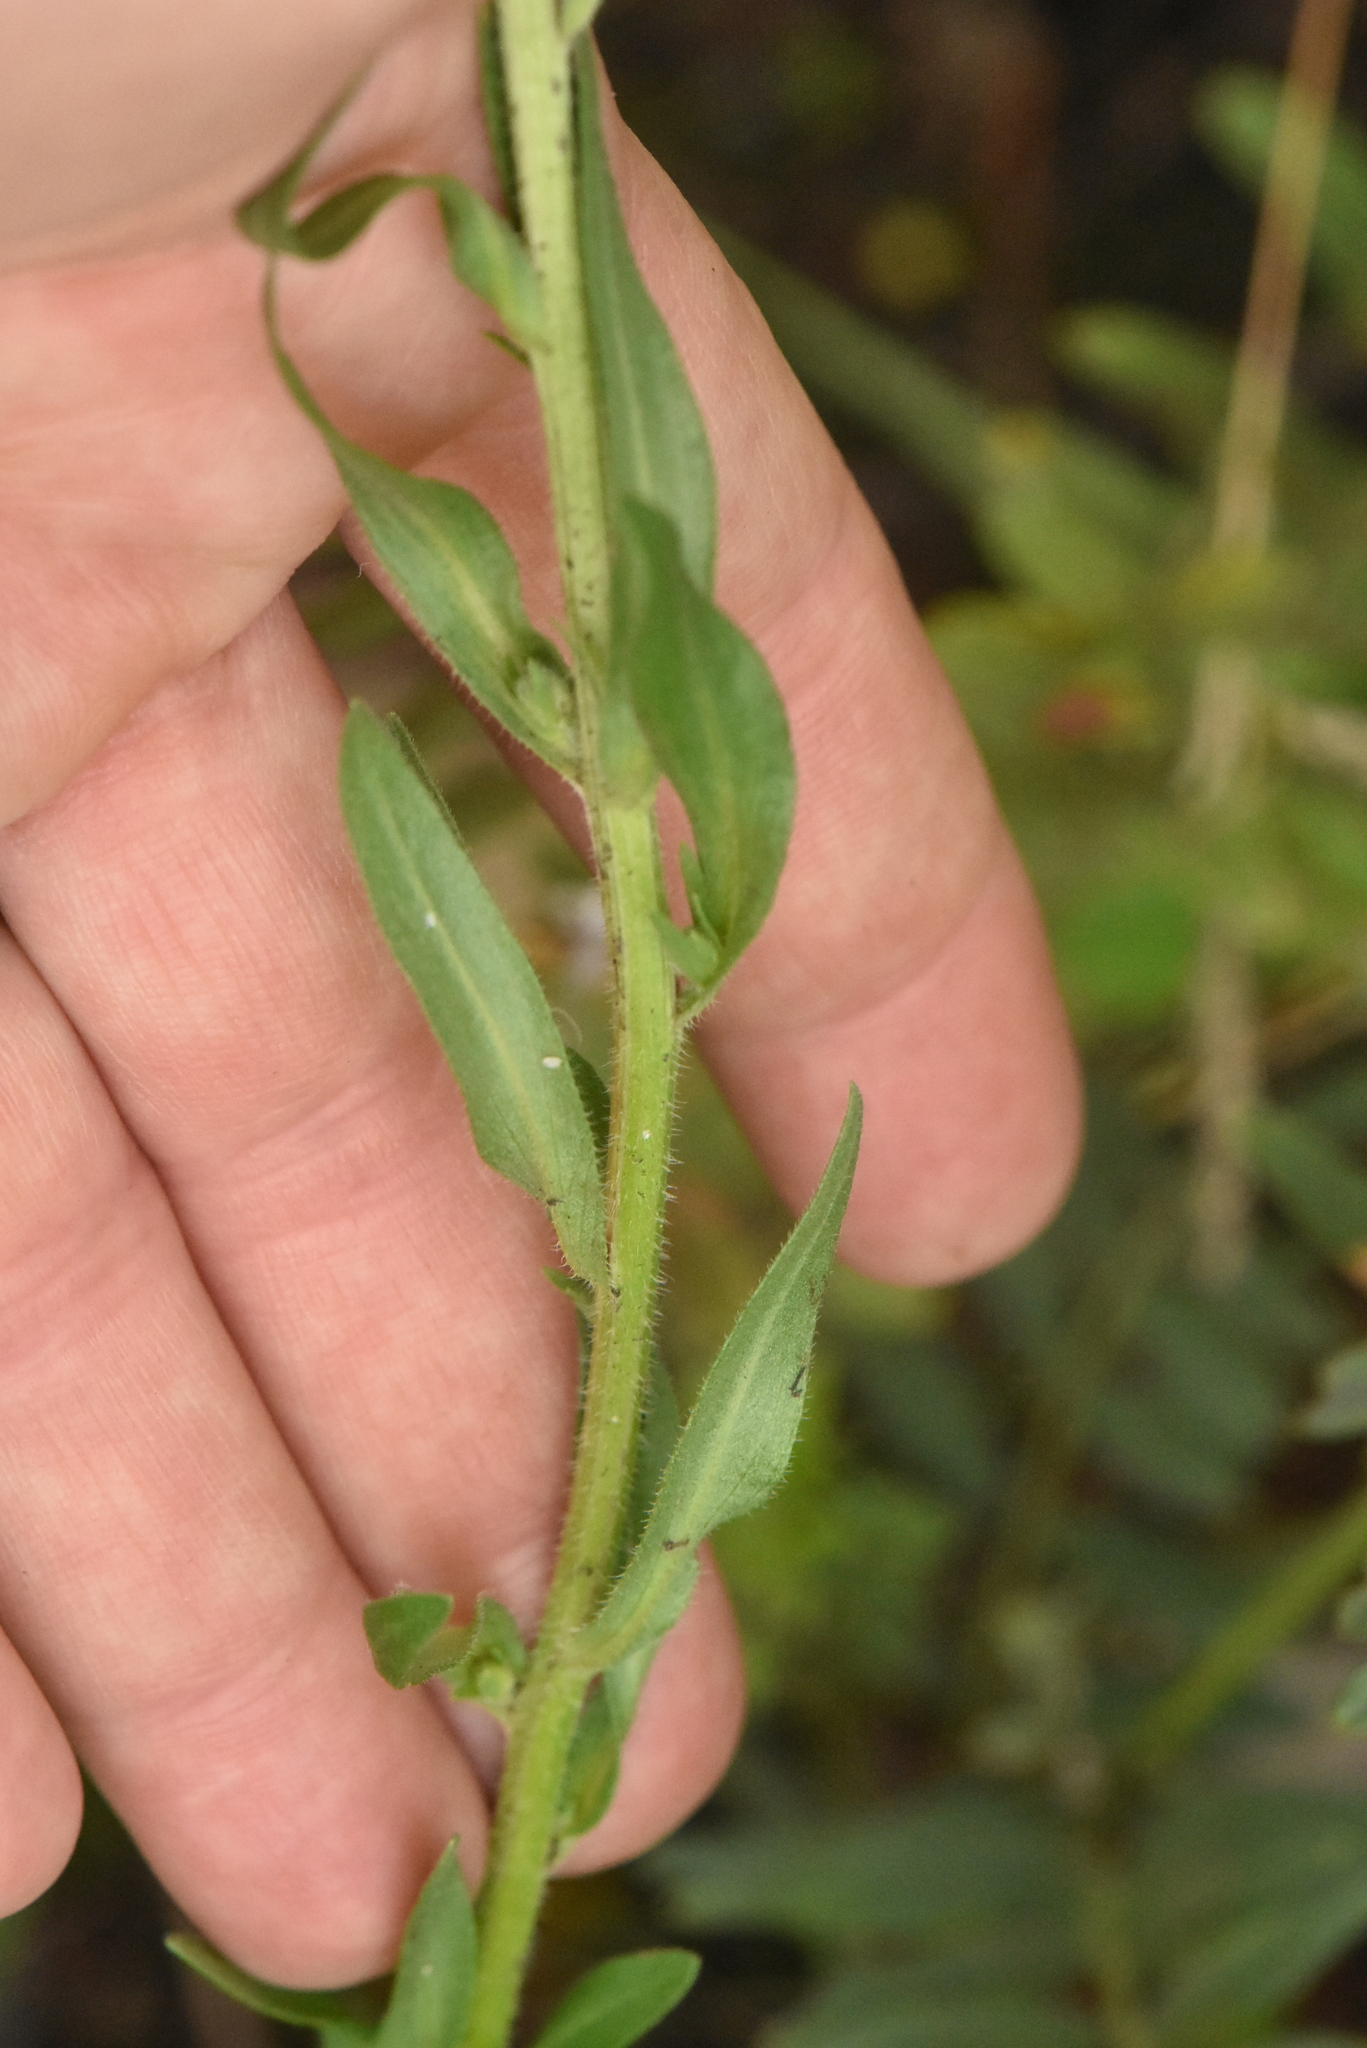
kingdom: Plantae
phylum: Tracheophyta
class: Magnoliopsida
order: Asterales
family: Asteraceae
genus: Erigeron
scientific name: Erigeron acris
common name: Blue fleabane
